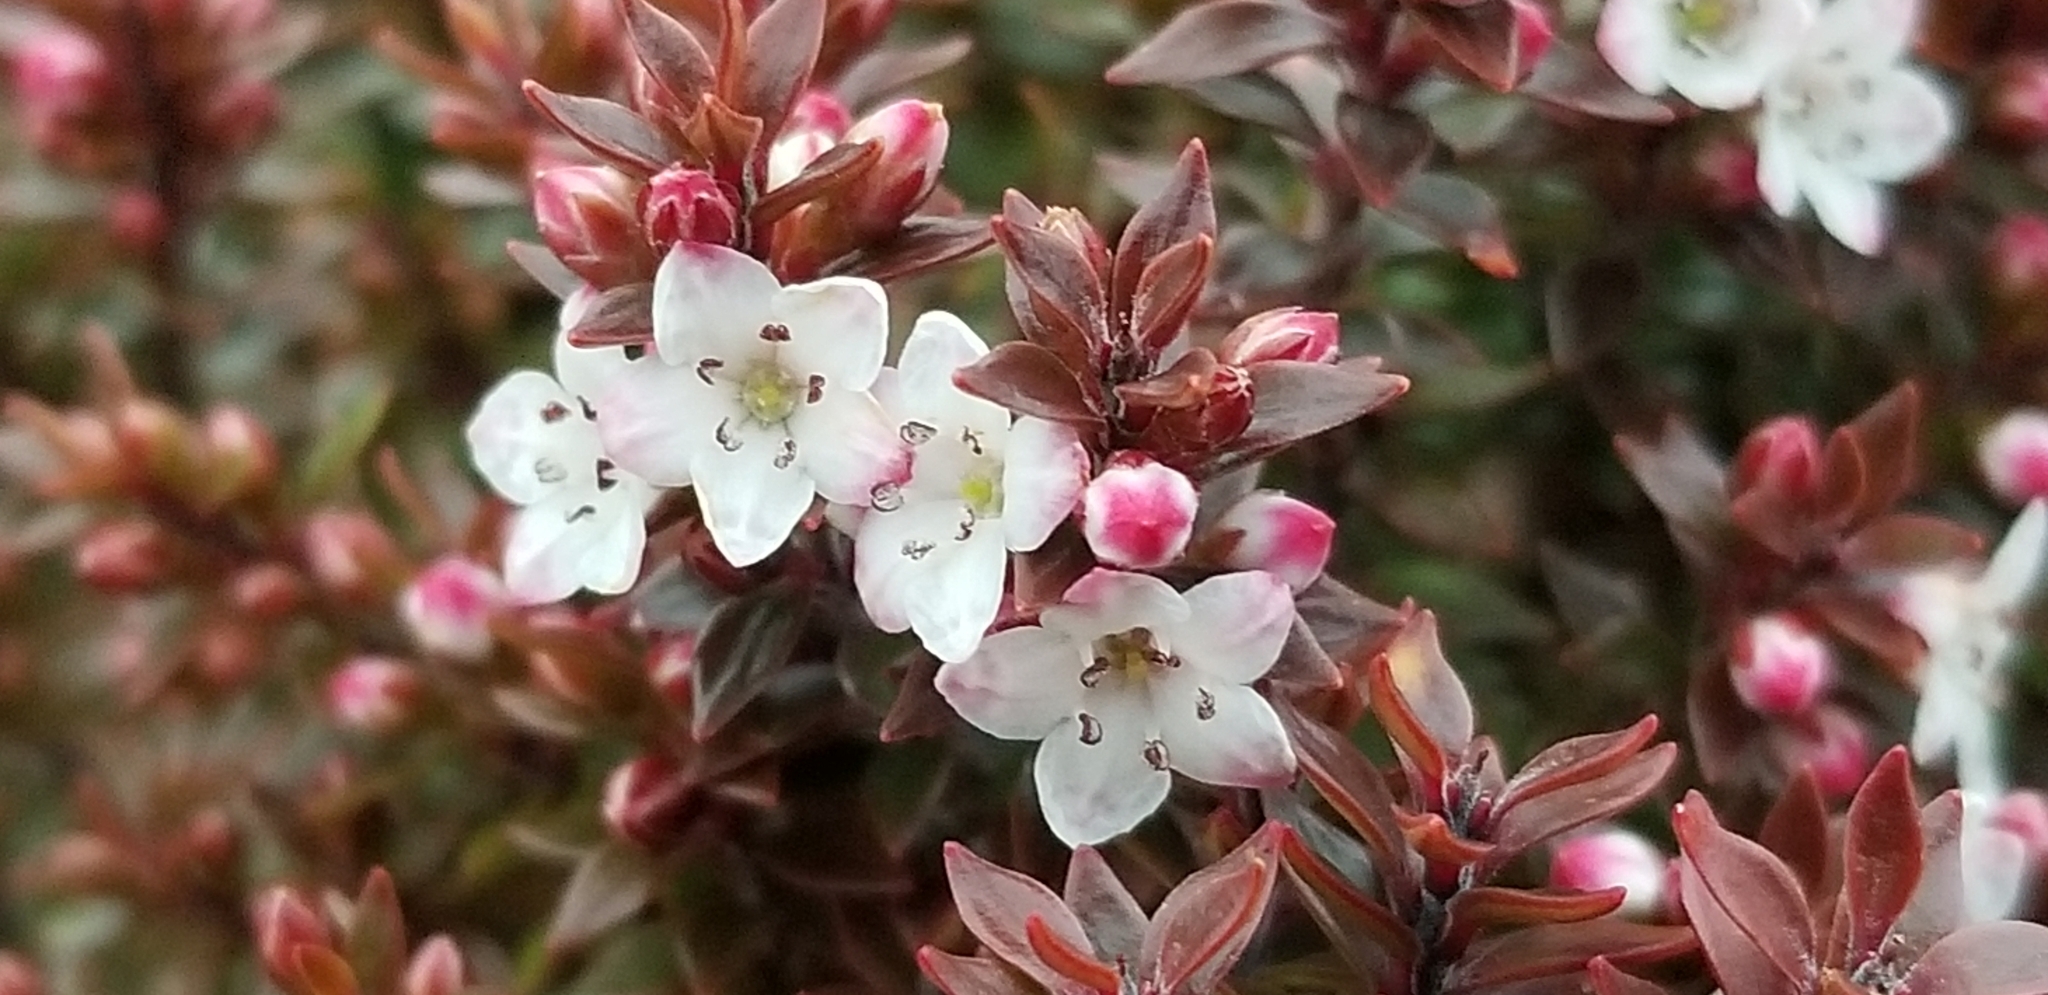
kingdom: Plantae
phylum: Tracheophyta
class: Magnoliopsida
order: Ericales
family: Ericaceae
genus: Epacris
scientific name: Epacris alpina
